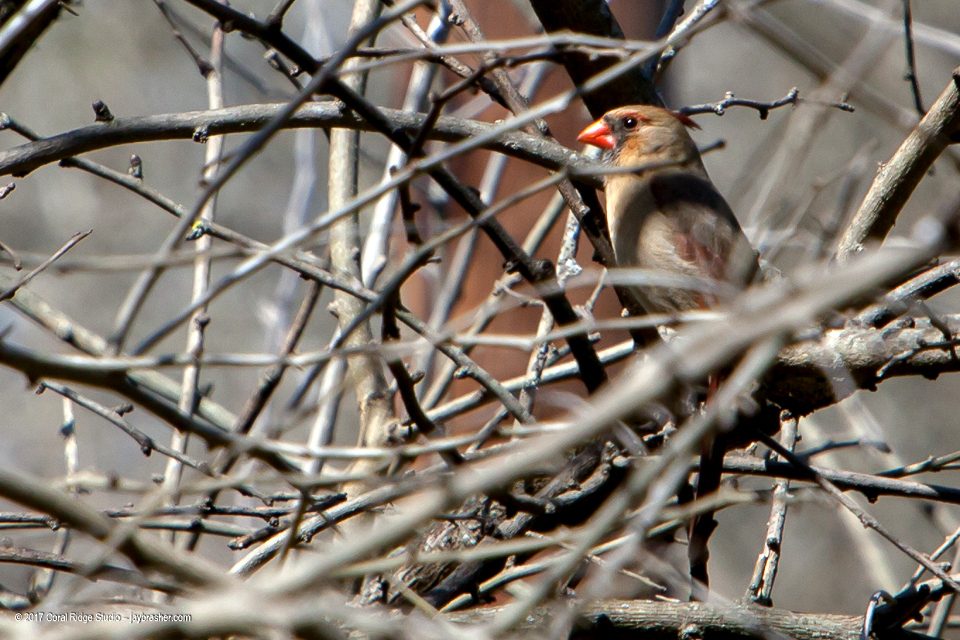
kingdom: Animalia
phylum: Chordata
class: Aves
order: Passeriformes
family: Cardinalidae
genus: Cardinalis
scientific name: Cardinalis cardinalis
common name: Northern cardinal
